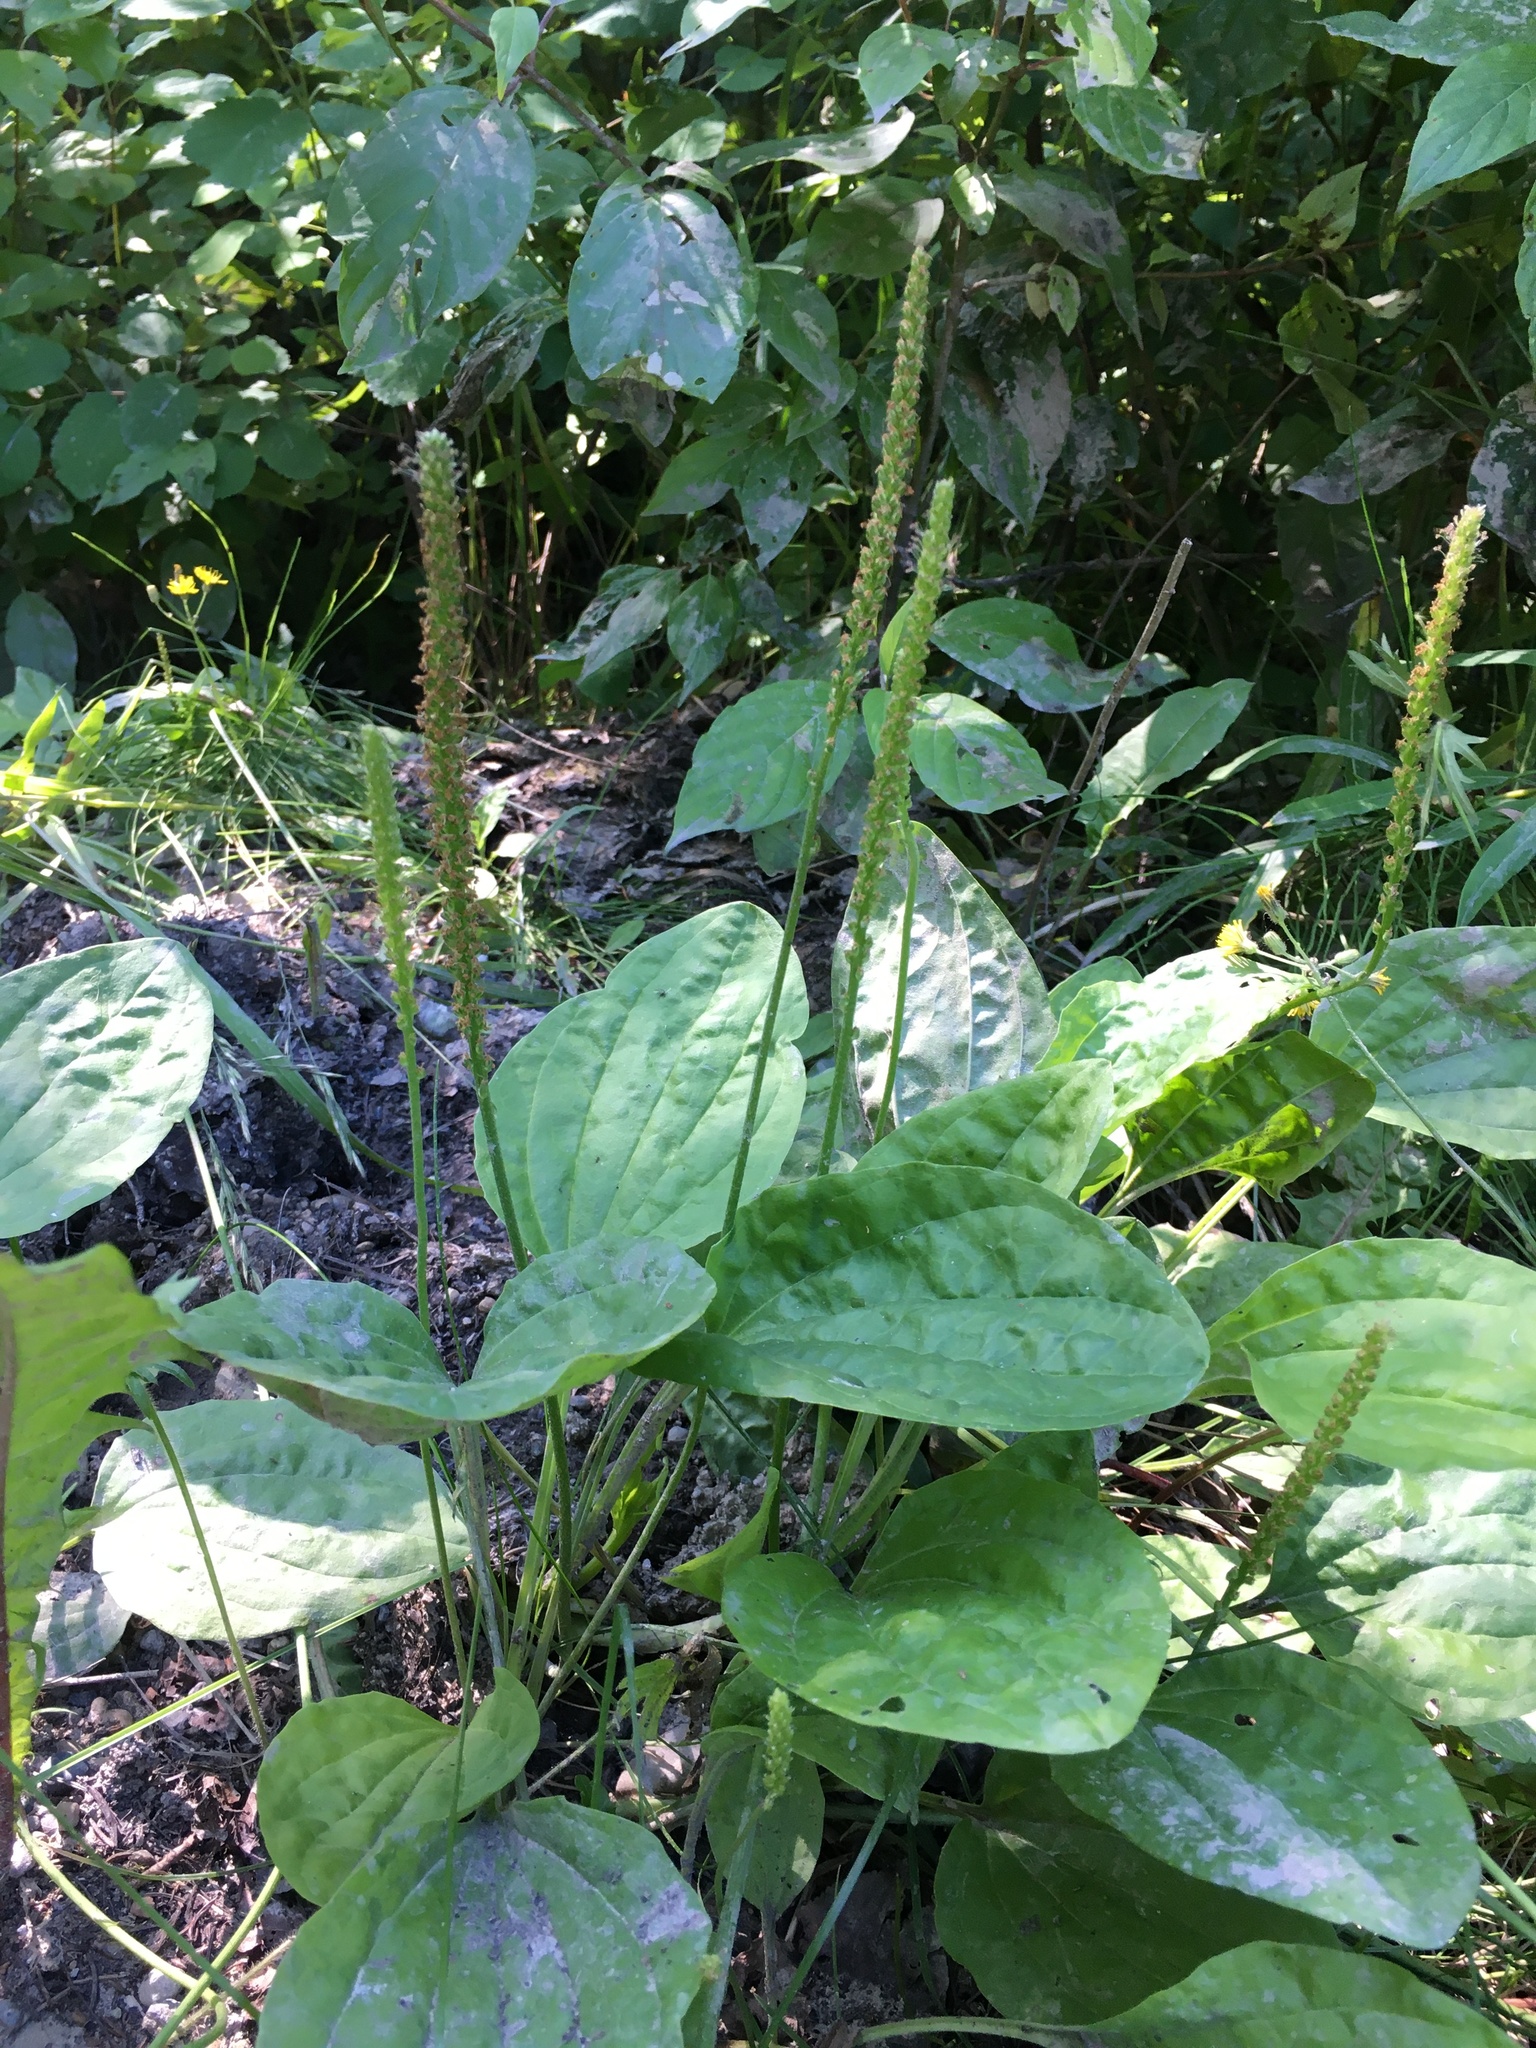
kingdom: Plantae
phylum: Tracheophyta
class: Magnoliopsida
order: Lamiales
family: Plantaginaceae
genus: Plantago
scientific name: Plantago major
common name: Common plantain
